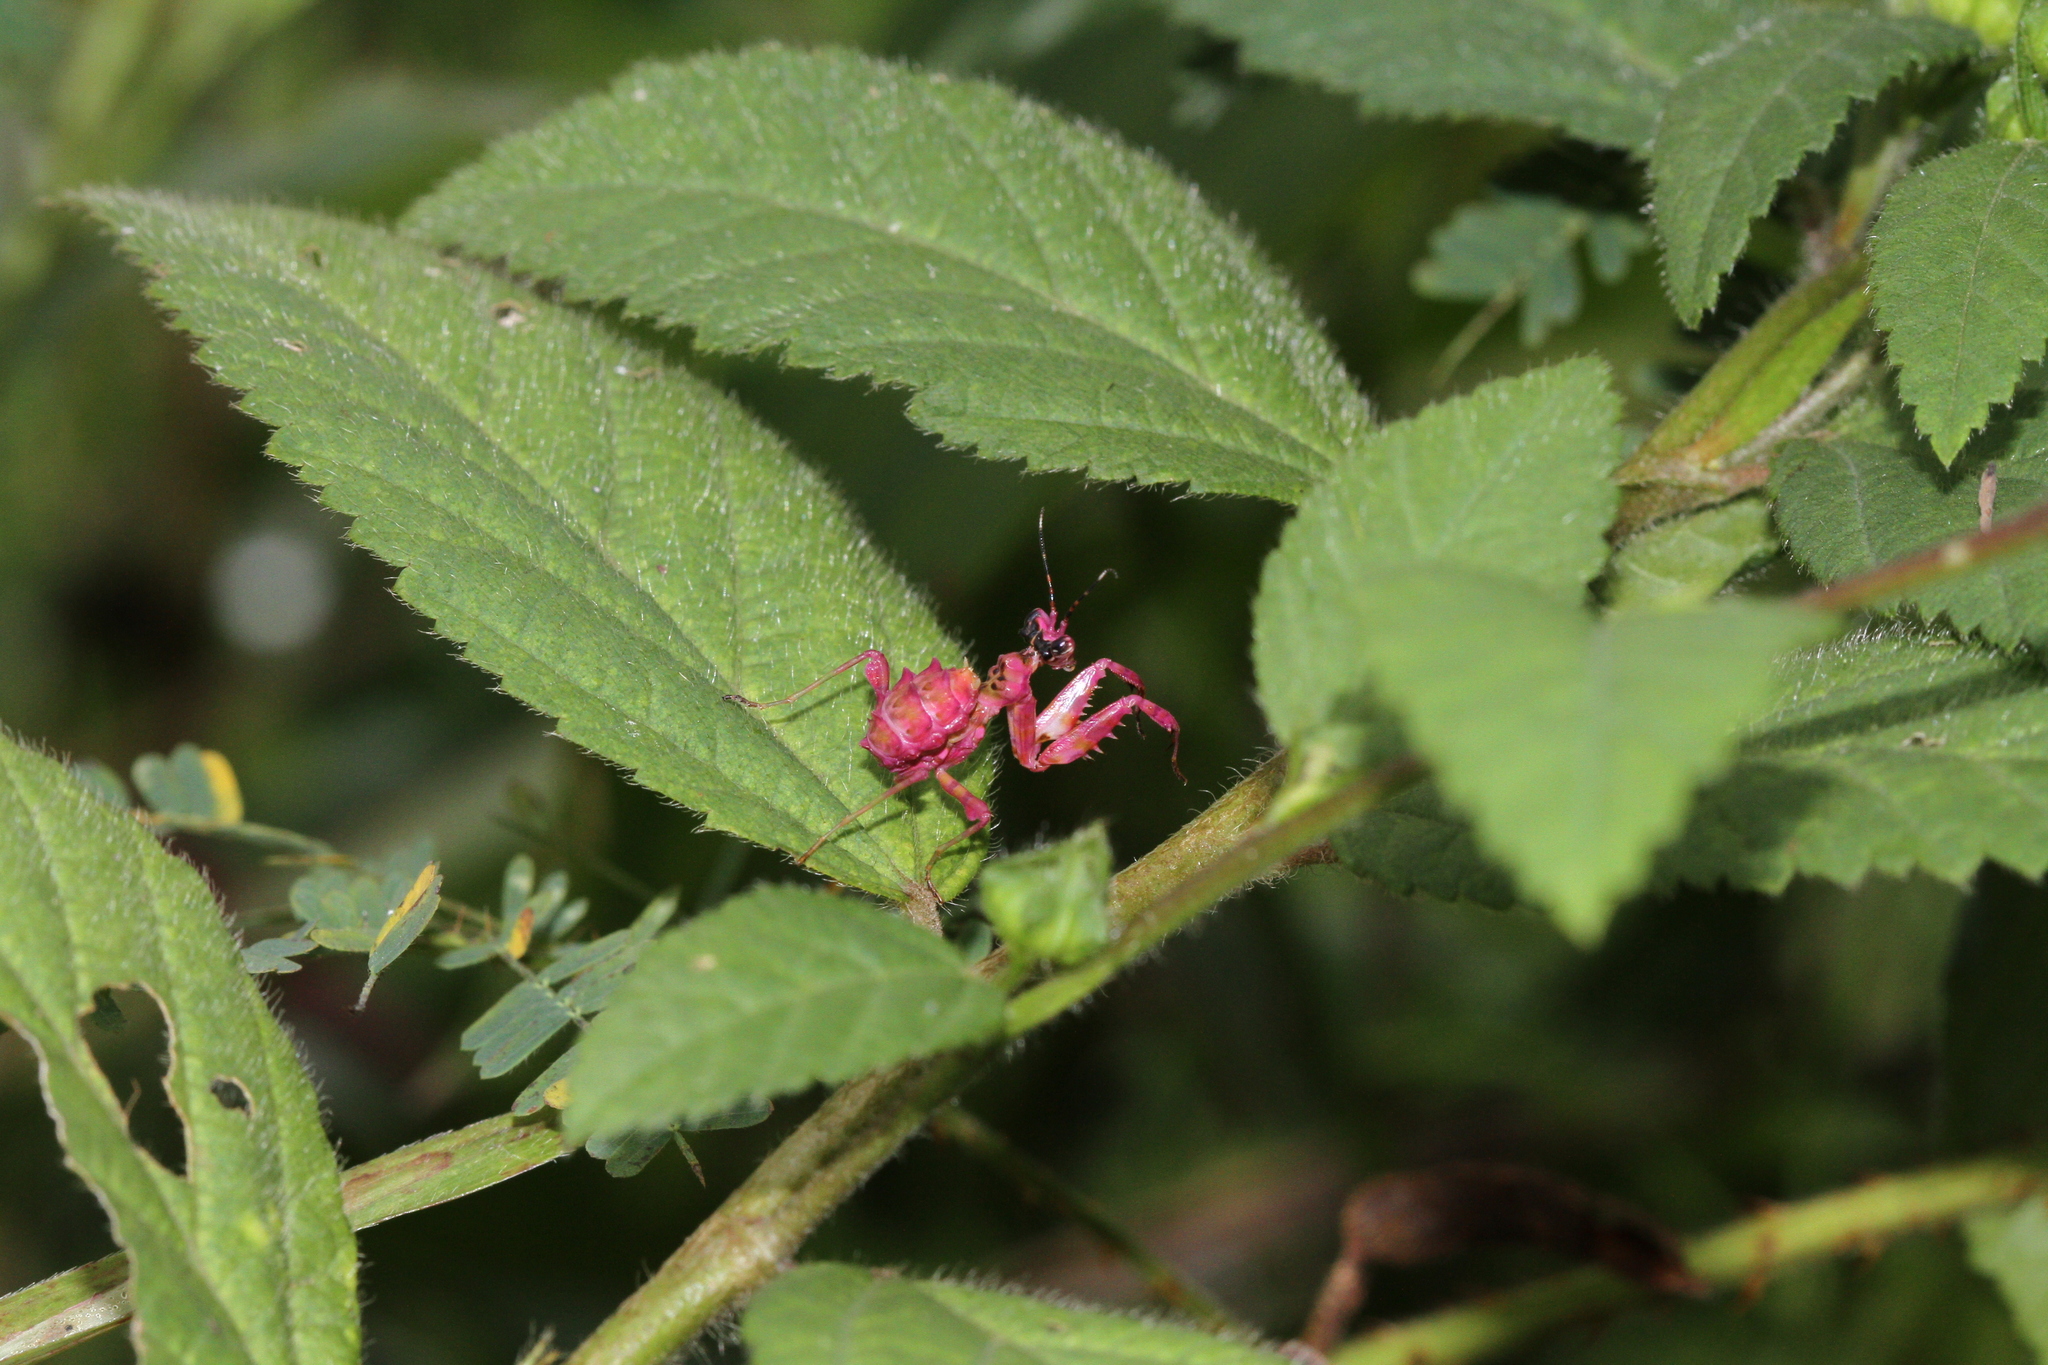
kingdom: Animalia
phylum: Arthropoda
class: Insecta
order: Mantodea
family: Hymenopodidae
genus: Pseudocreobotra
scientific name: Pseudocreobotra ocellata
